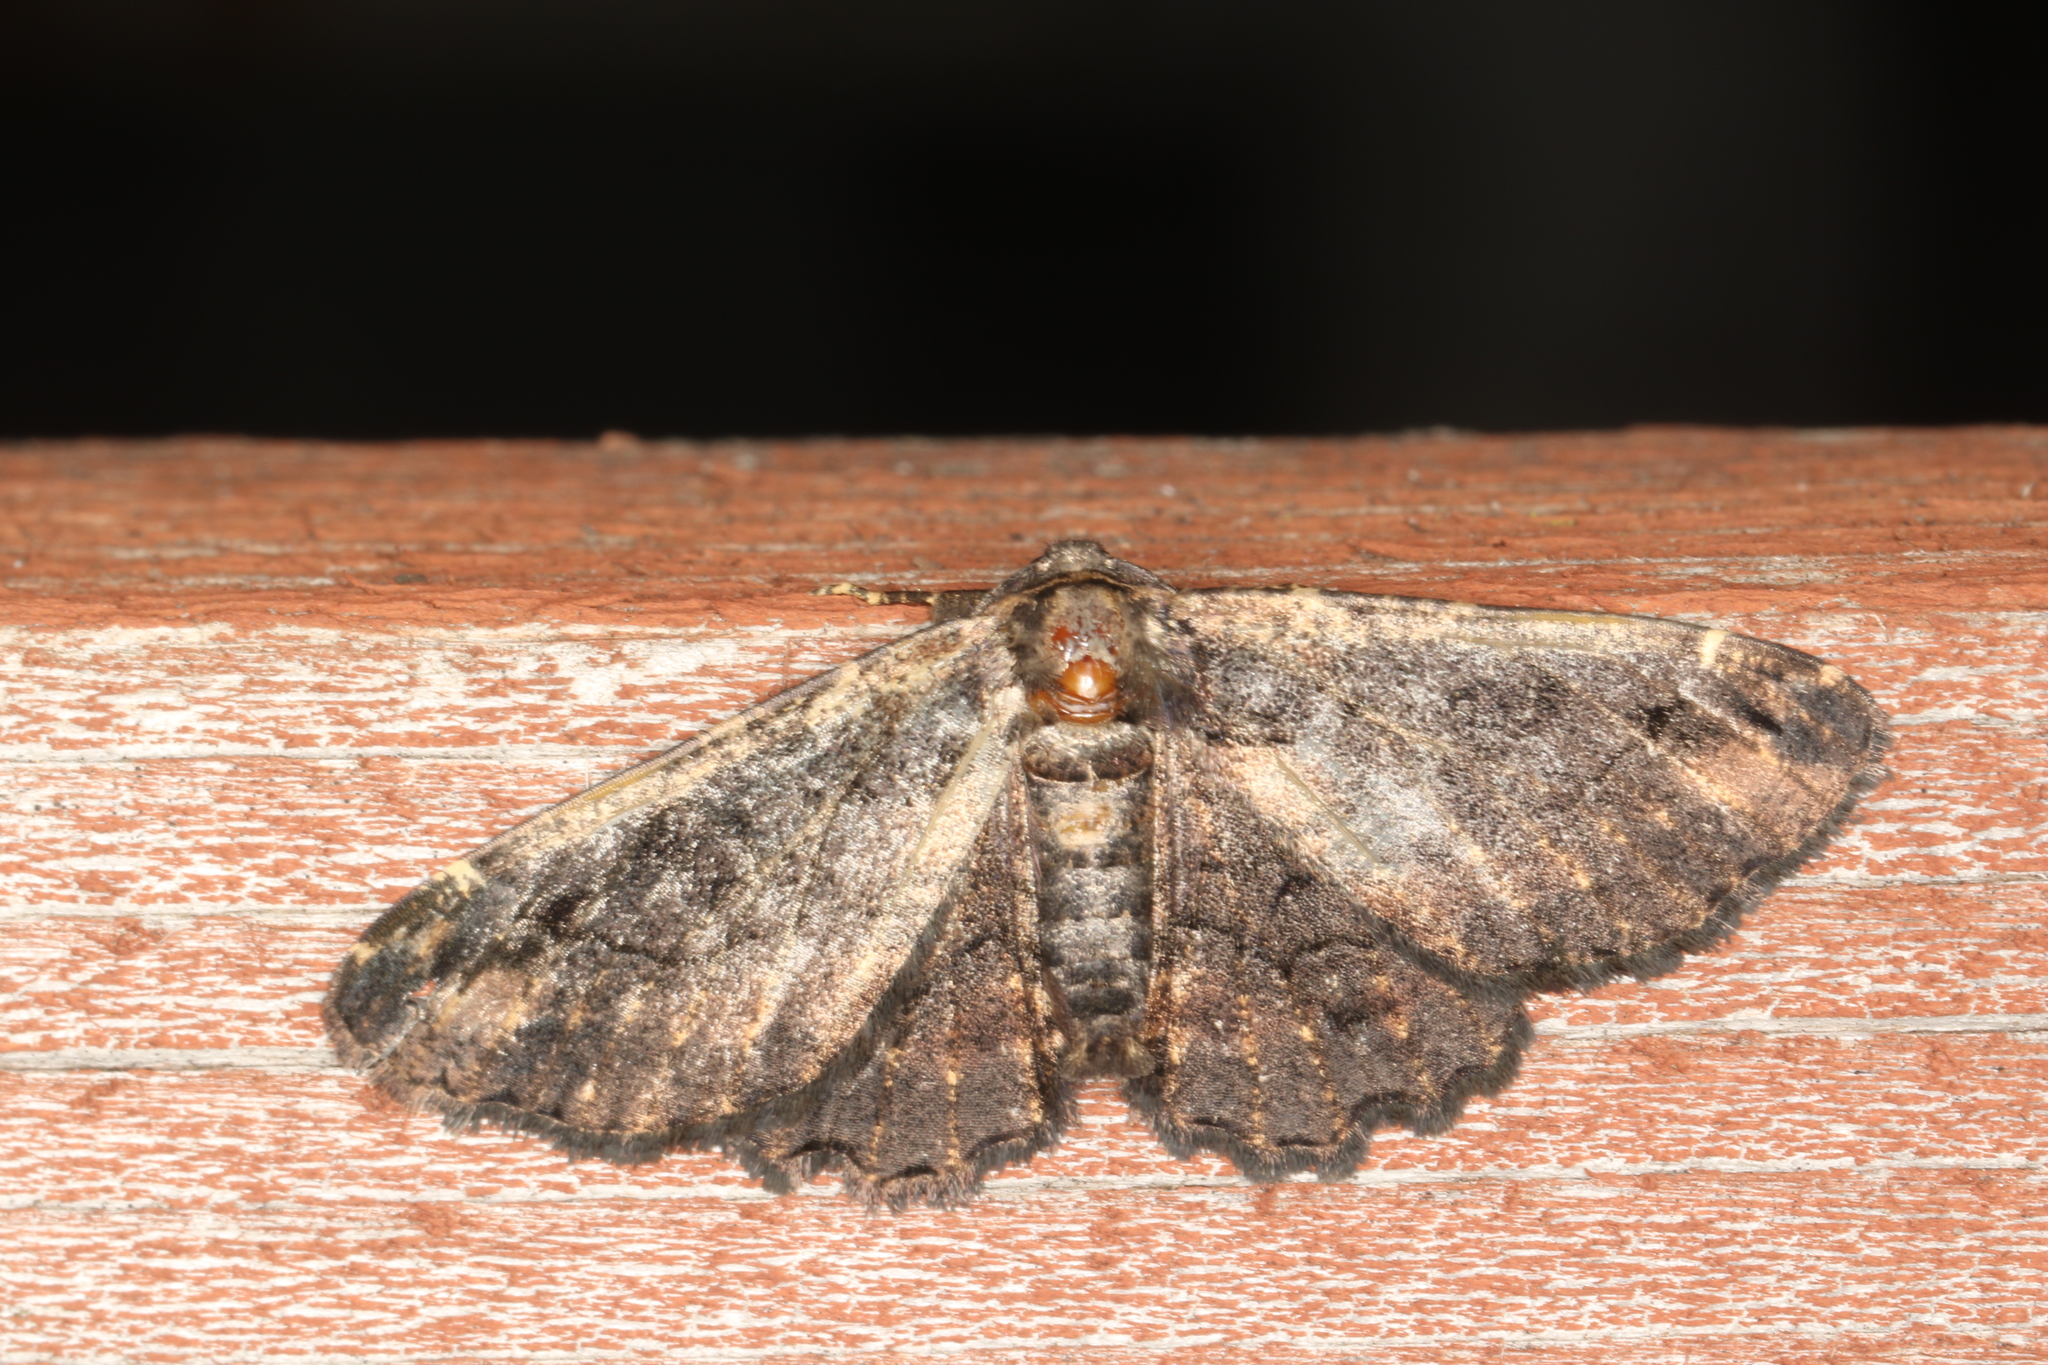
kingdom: Animalia
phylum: Arthropoda
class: Insecta
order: Lepidoptera
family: Geometridae
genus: Pholodes
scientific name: Pholodes sinistraria
